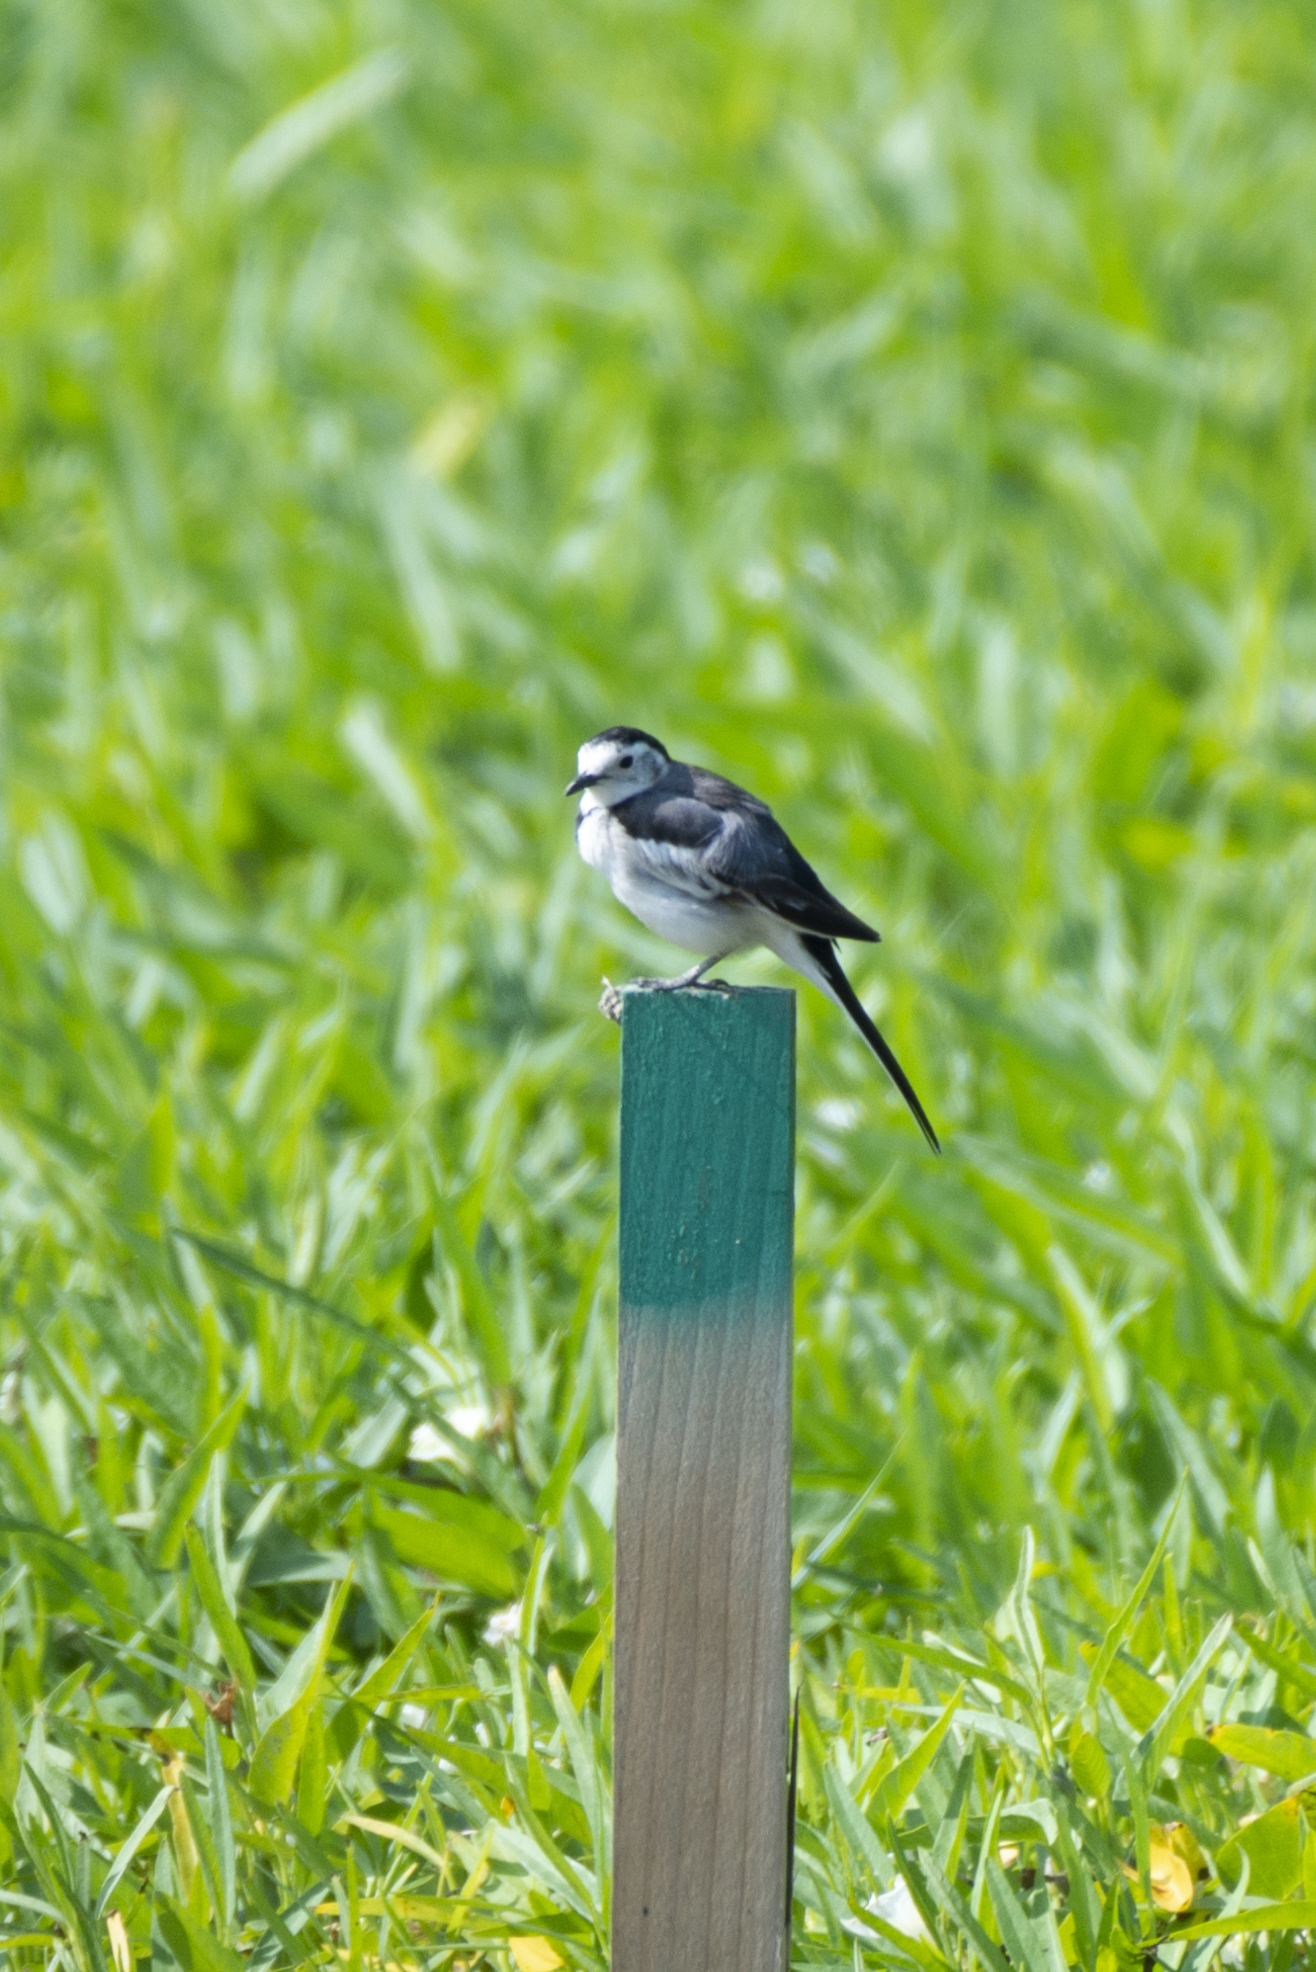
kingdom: Animalia
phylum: Chordata
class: Aves
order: Passeriformes
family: Motacillidae
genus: Motacilla
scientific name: Motacilla alba
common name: White wagtail
